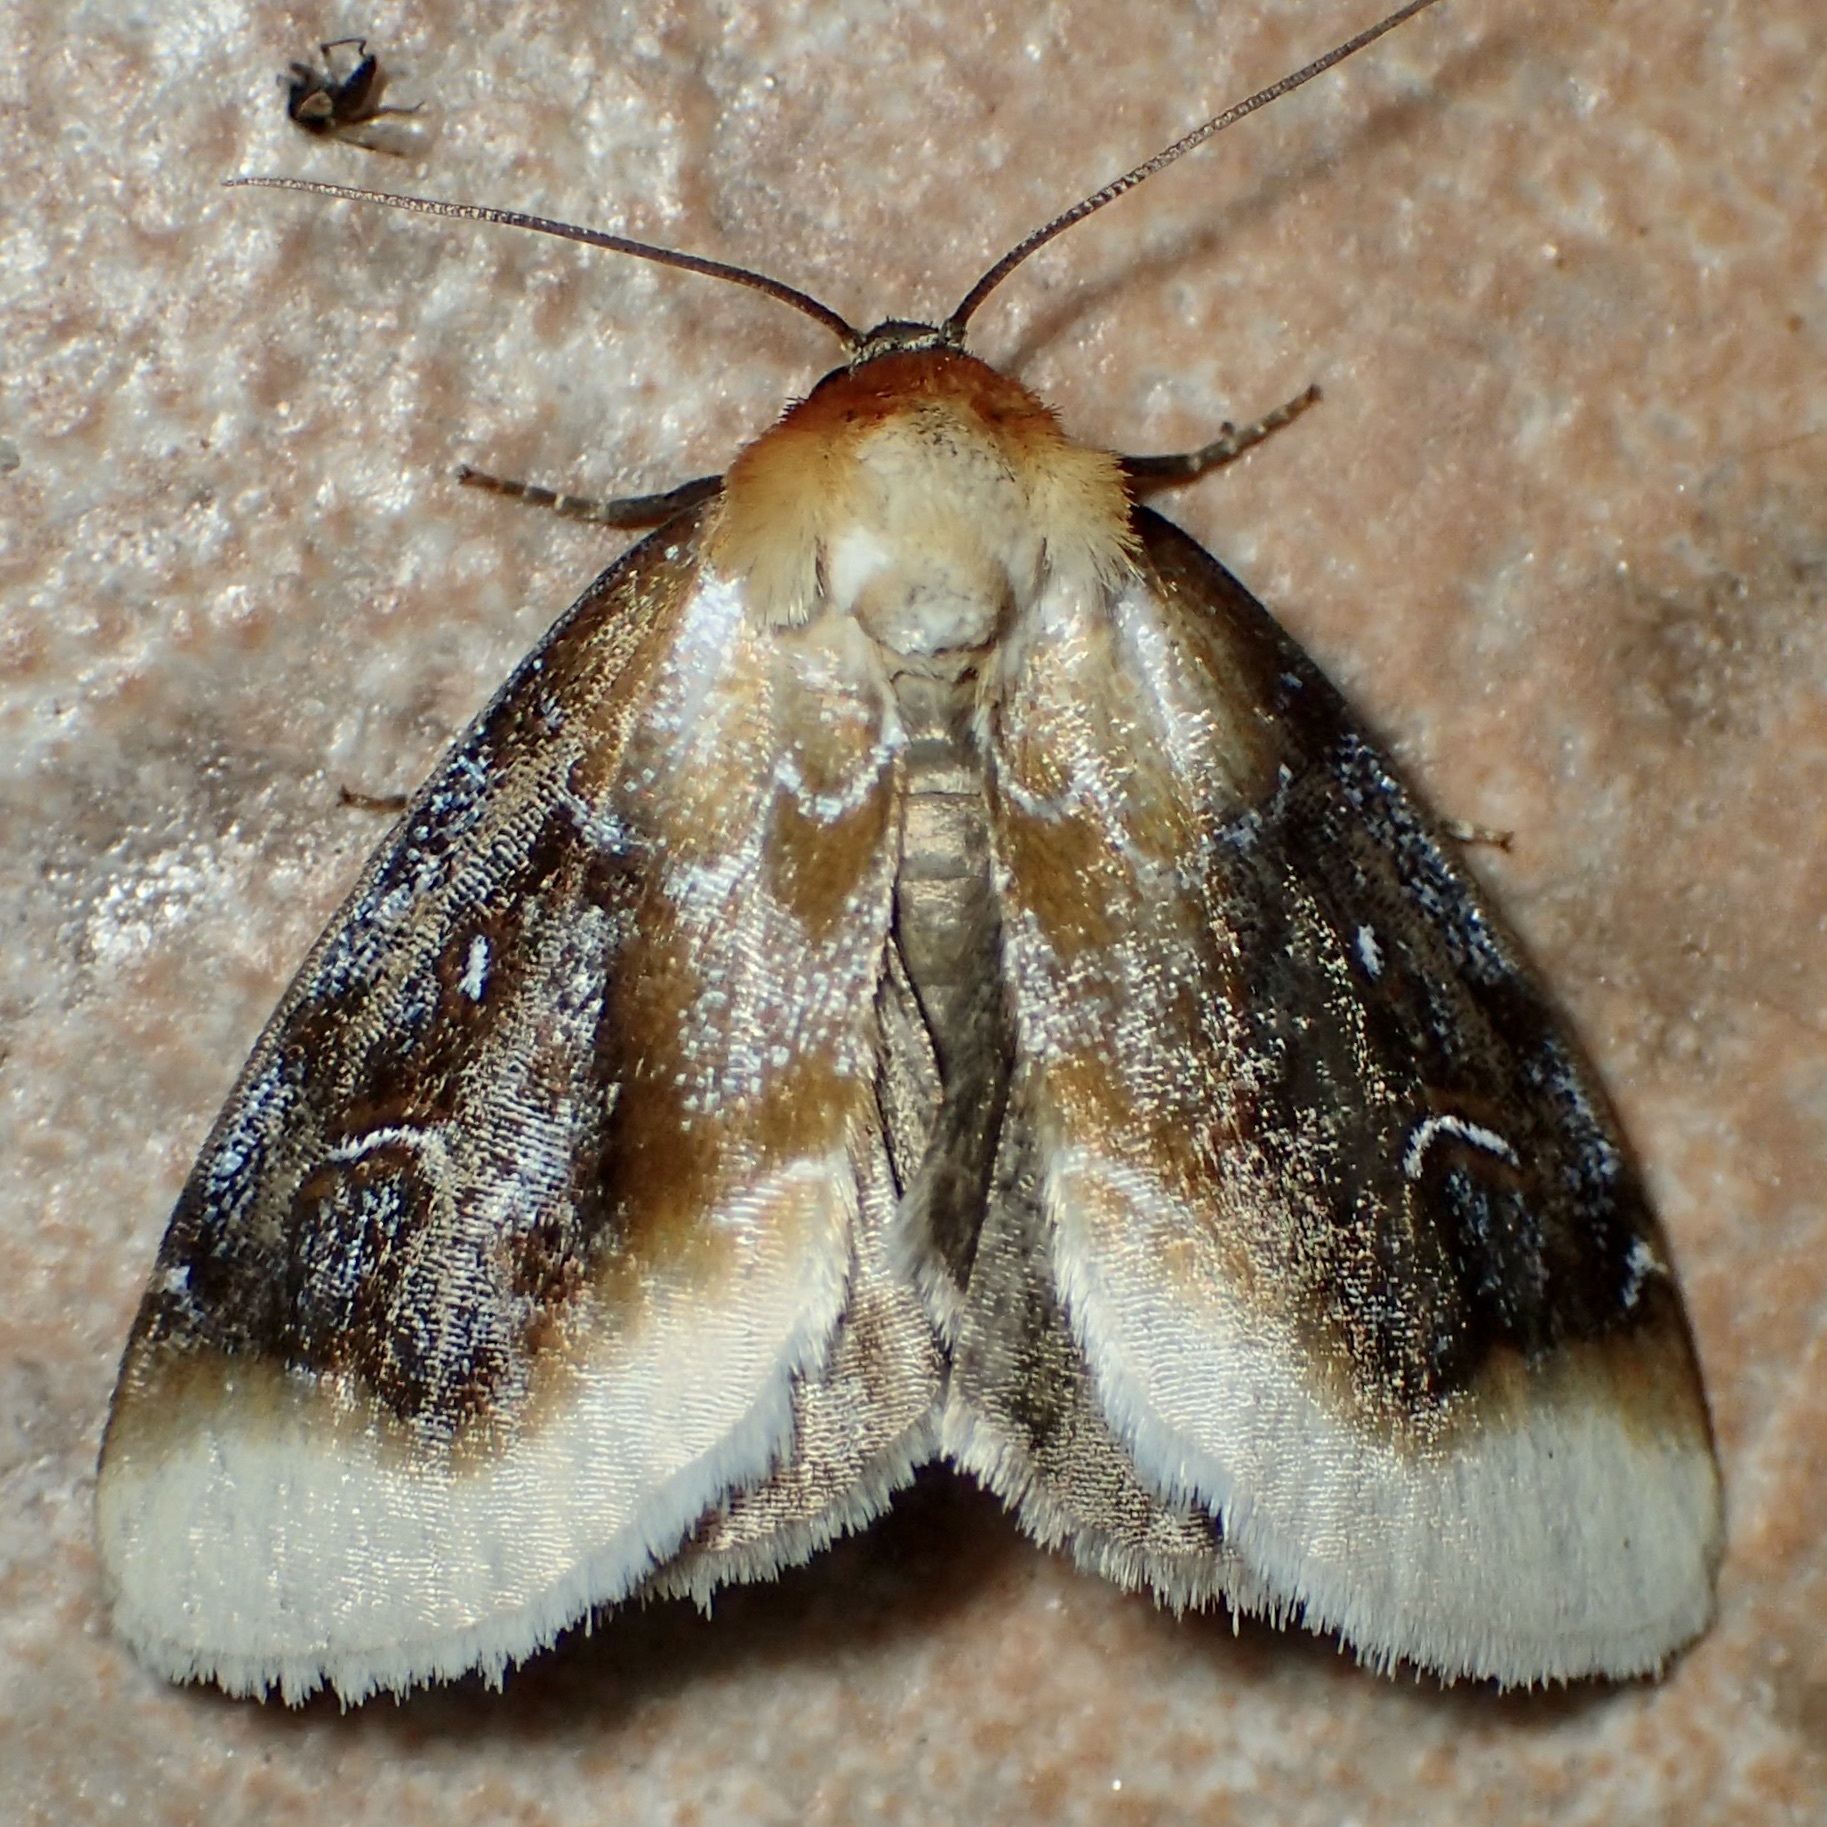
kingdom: Animalia
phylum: Arthropoda
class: Insecta
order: Lepidoptera
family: Noctuidae
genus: Chrysoecia
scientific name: Chrysoecia scira
